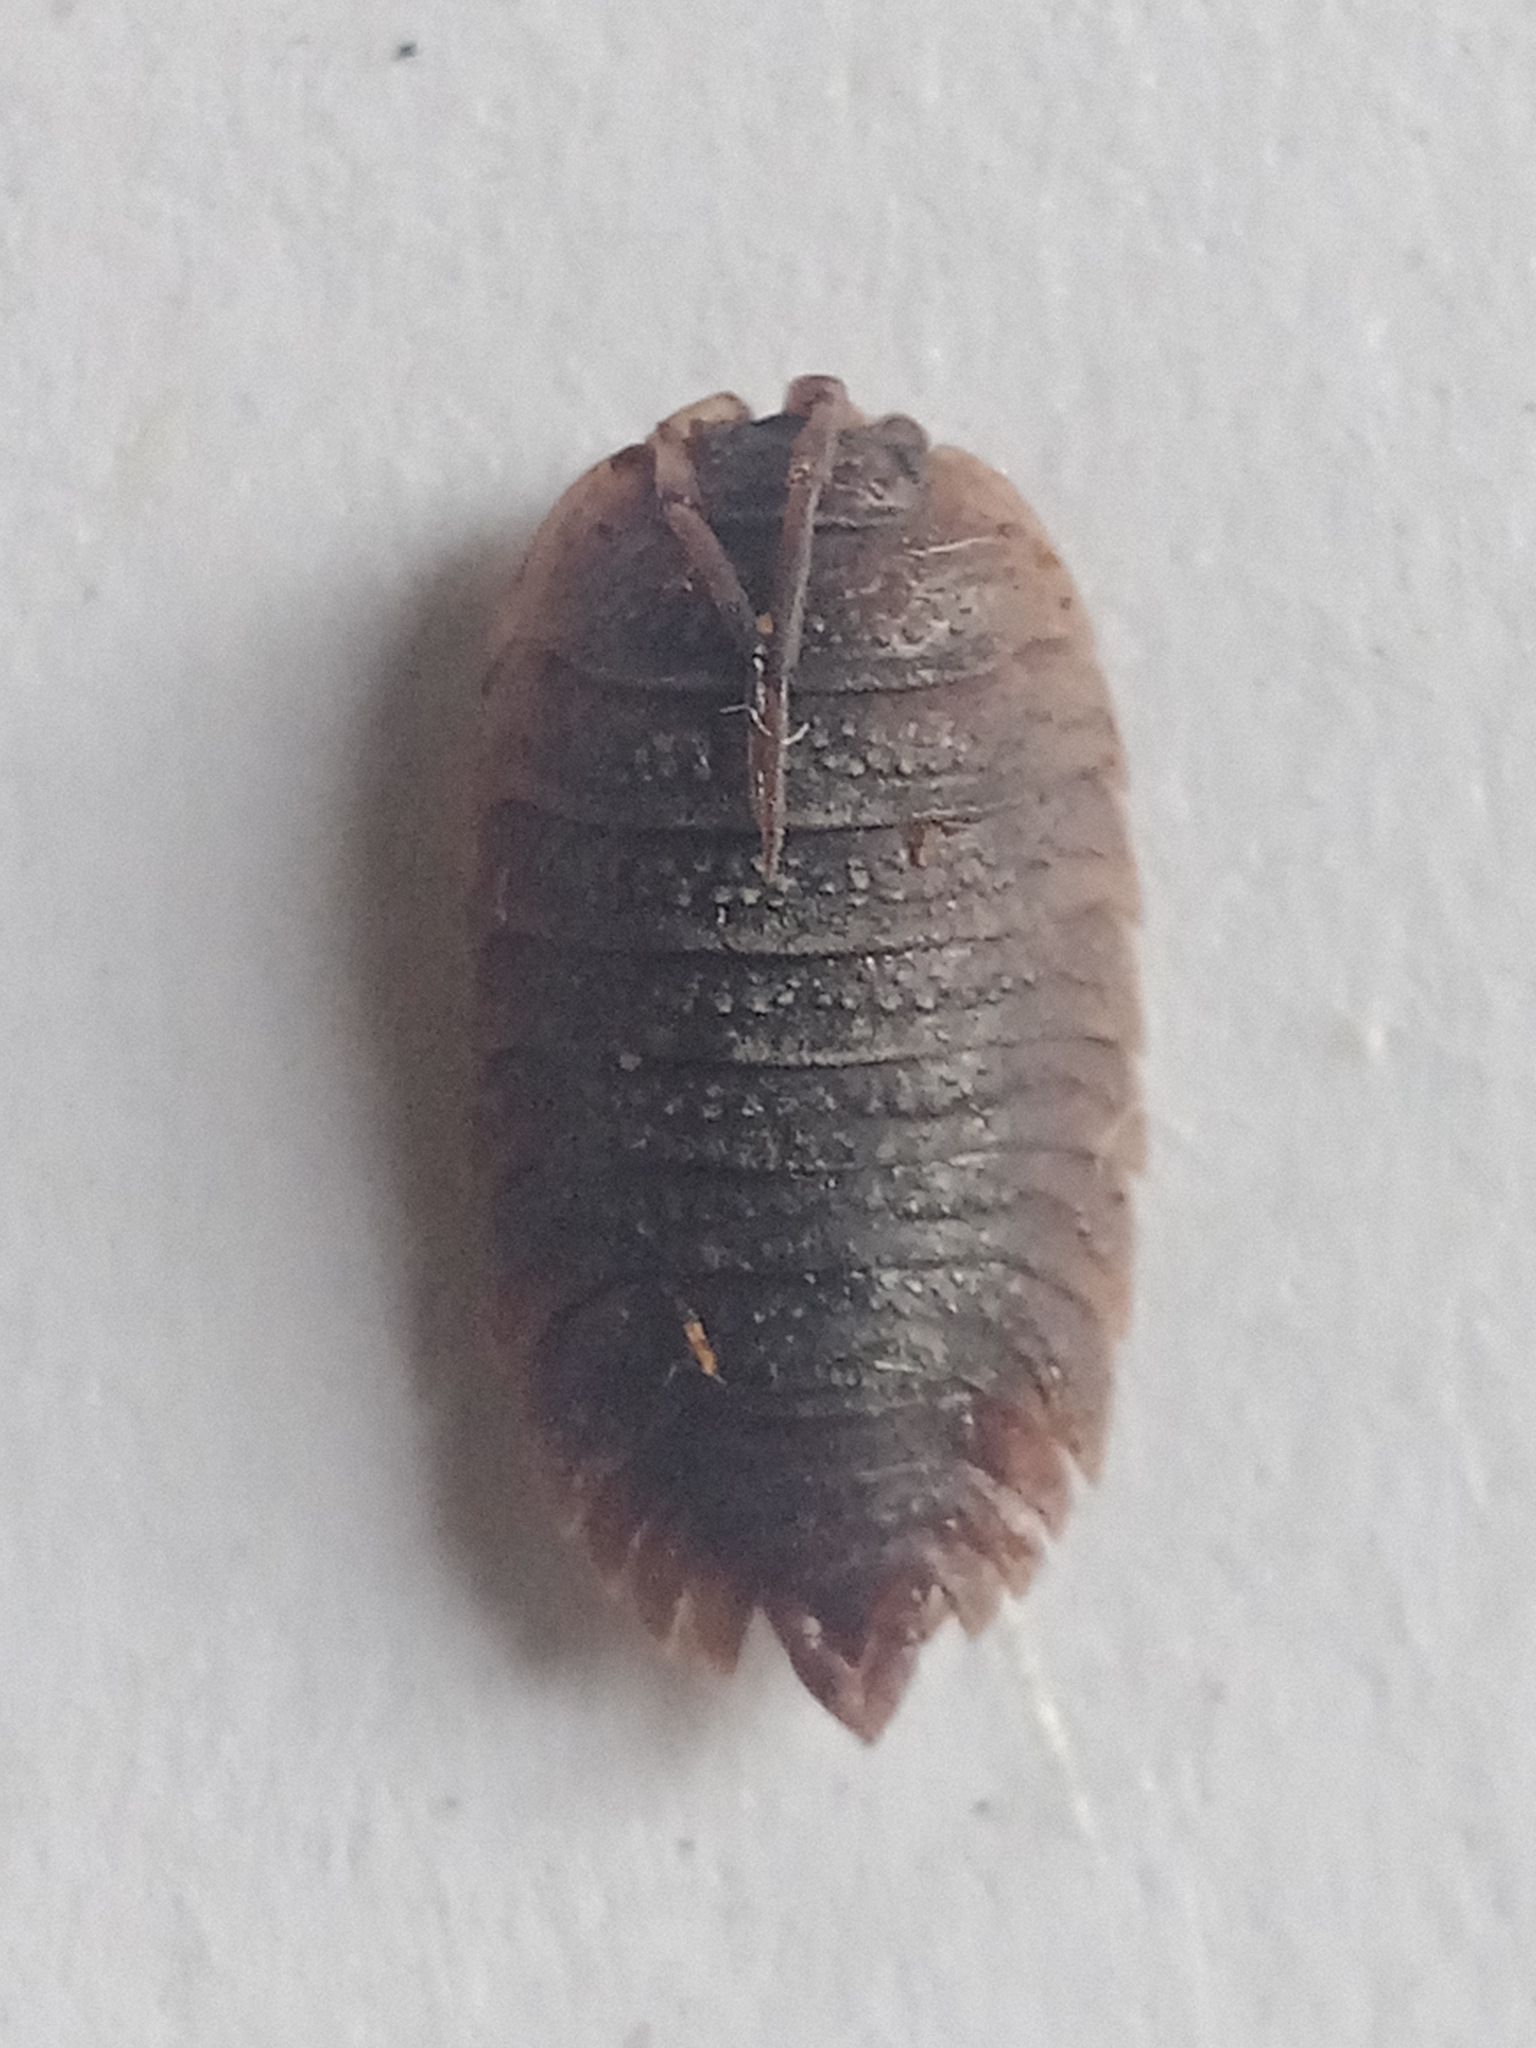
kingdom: Animalia
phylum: Arthropoda
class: Malacostraca
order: Isopoda
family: Porcellionidae
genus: Porcellio
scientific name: Porcellio scaber
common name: Common rough woodlouse
